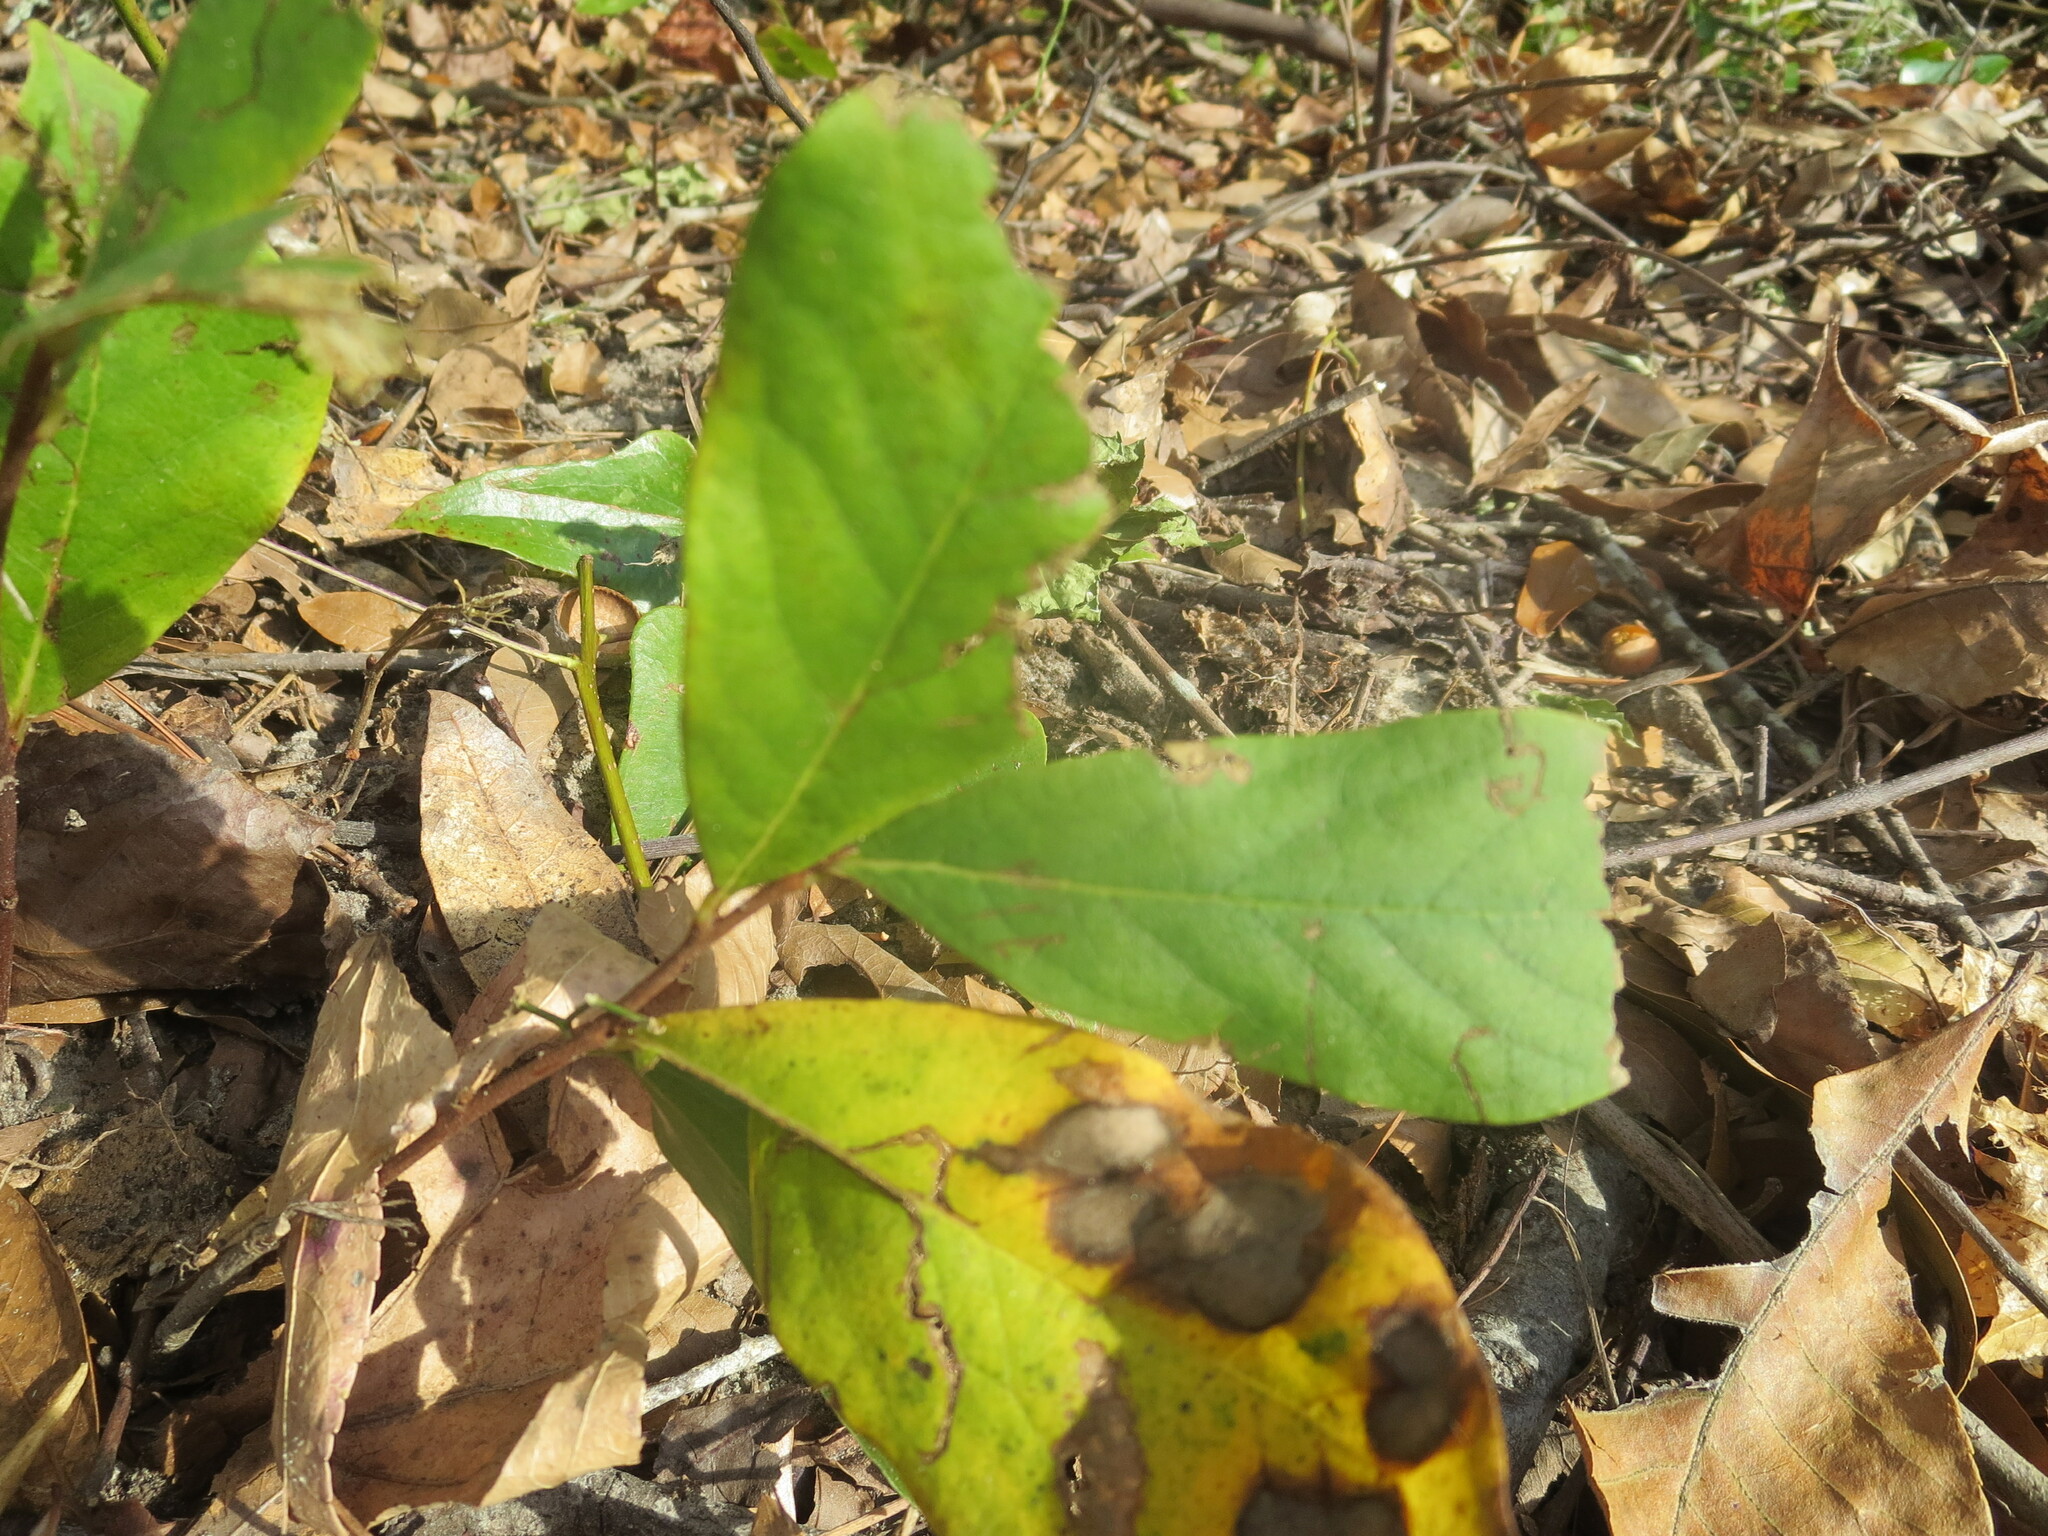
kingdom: Plantae
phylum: Tracheophyta
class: Magnoliopsida
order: Magnoliales
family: Annonaceae
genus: Asimina
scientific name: Asimina parviflora
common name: Dwarf pawpaw
